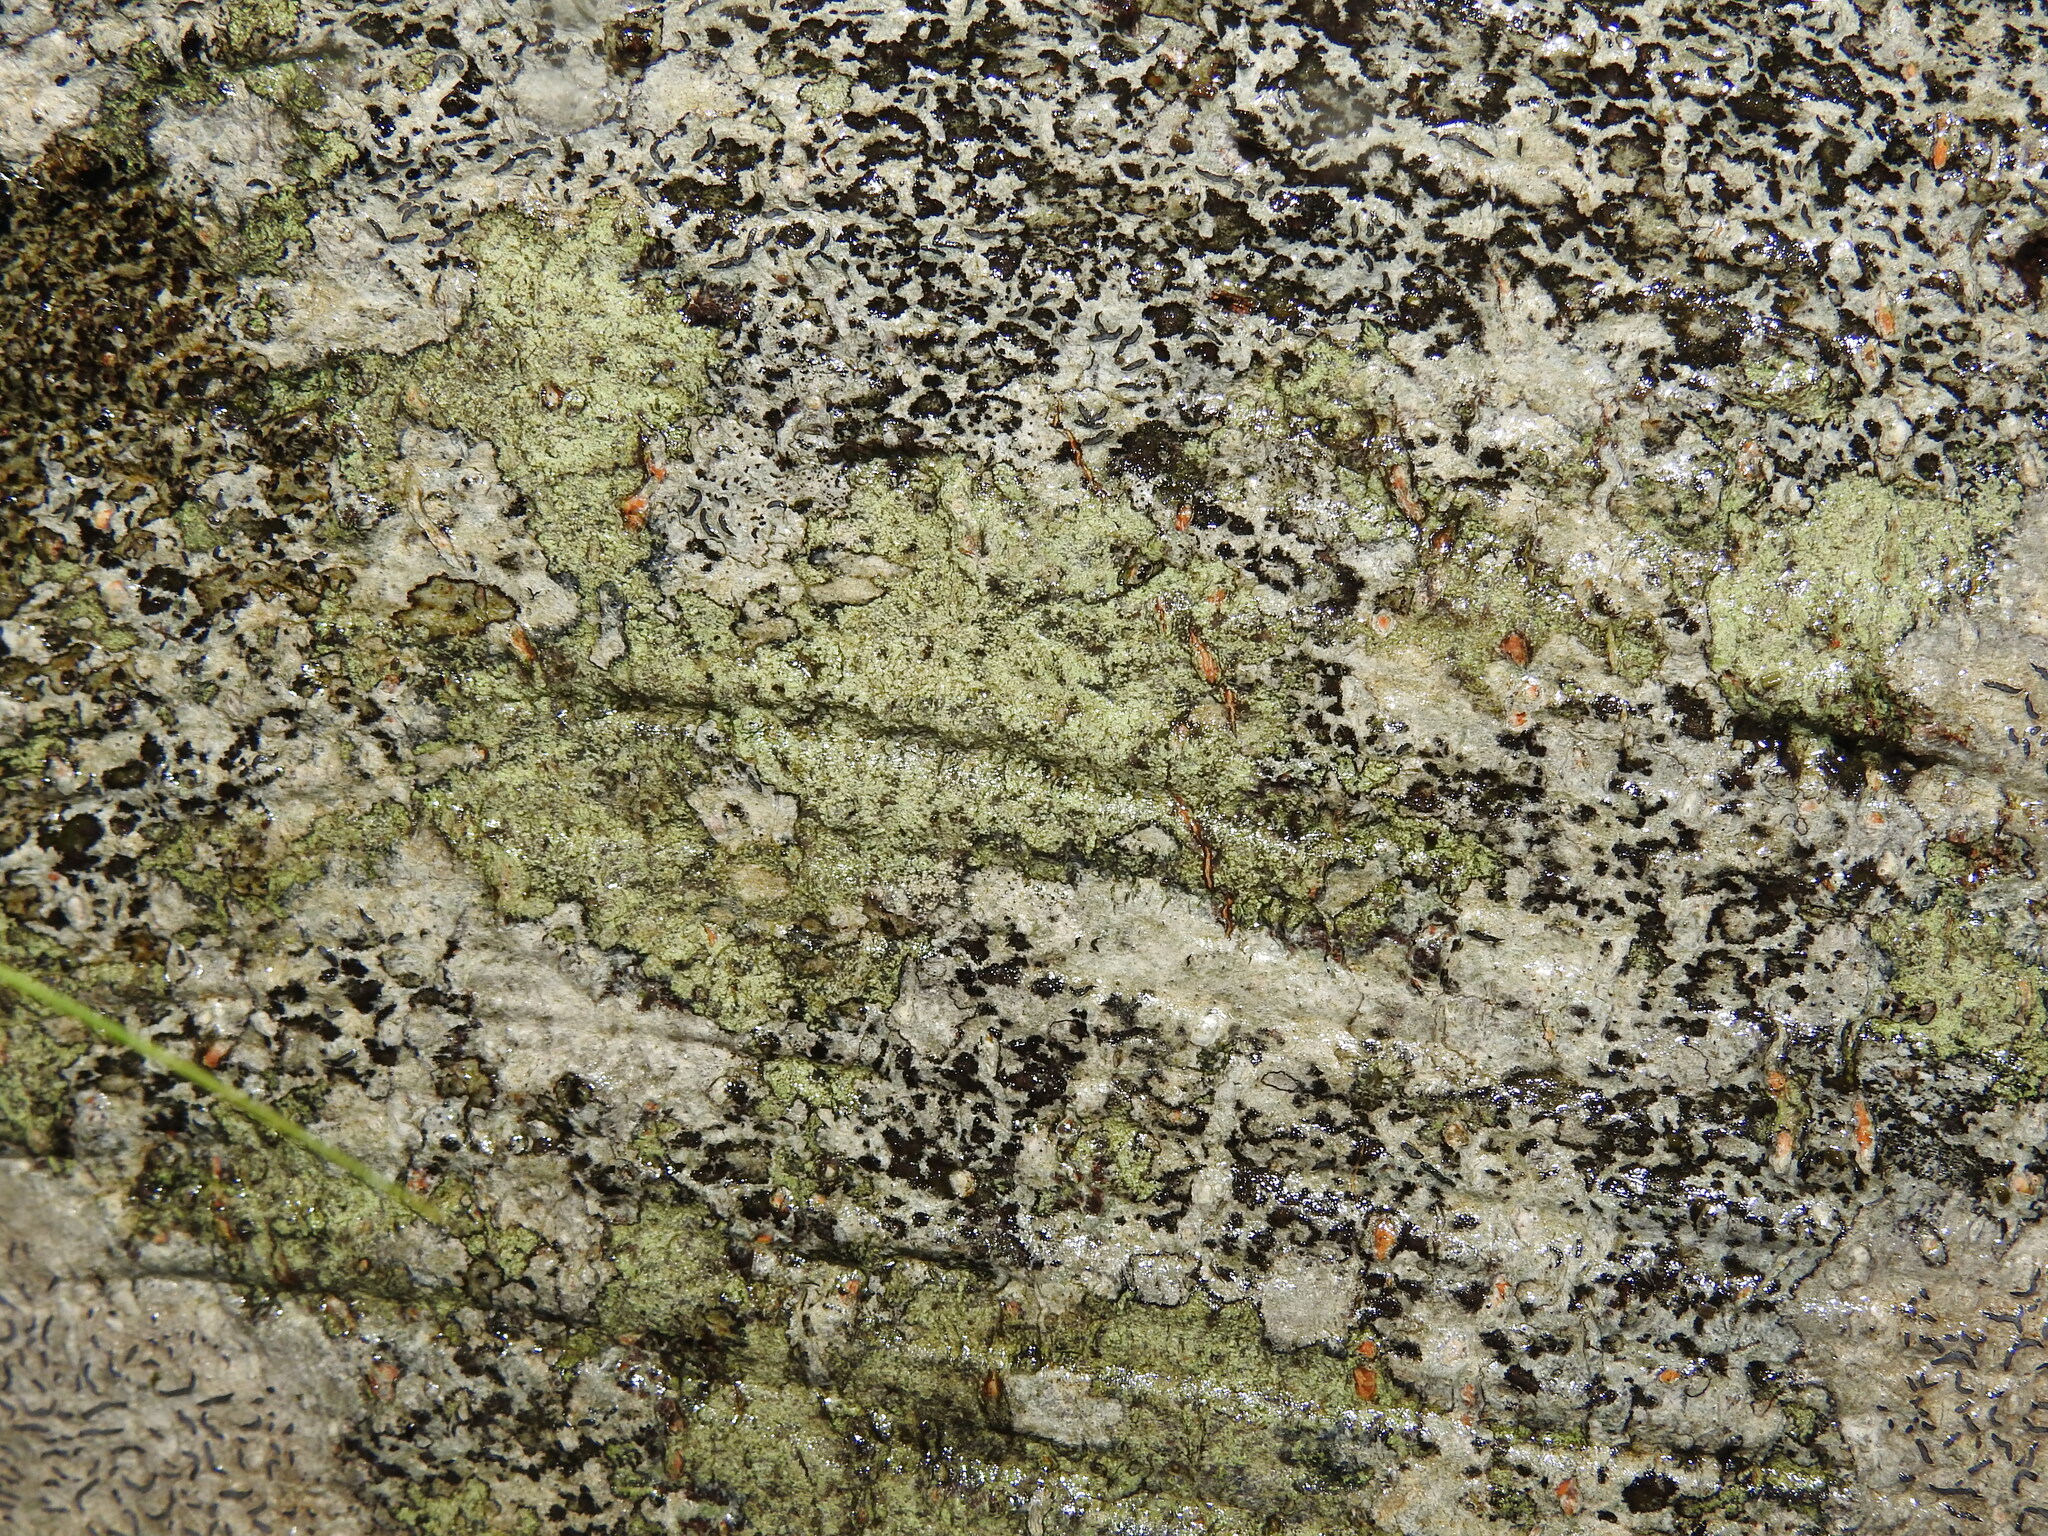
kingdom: Fungi
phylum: Ascomycota
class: Dothideomycetes
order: Mycosphaerellales
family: Mycosphaerellaceae
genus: Stigmidium
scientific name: Stigmidium microspilum
